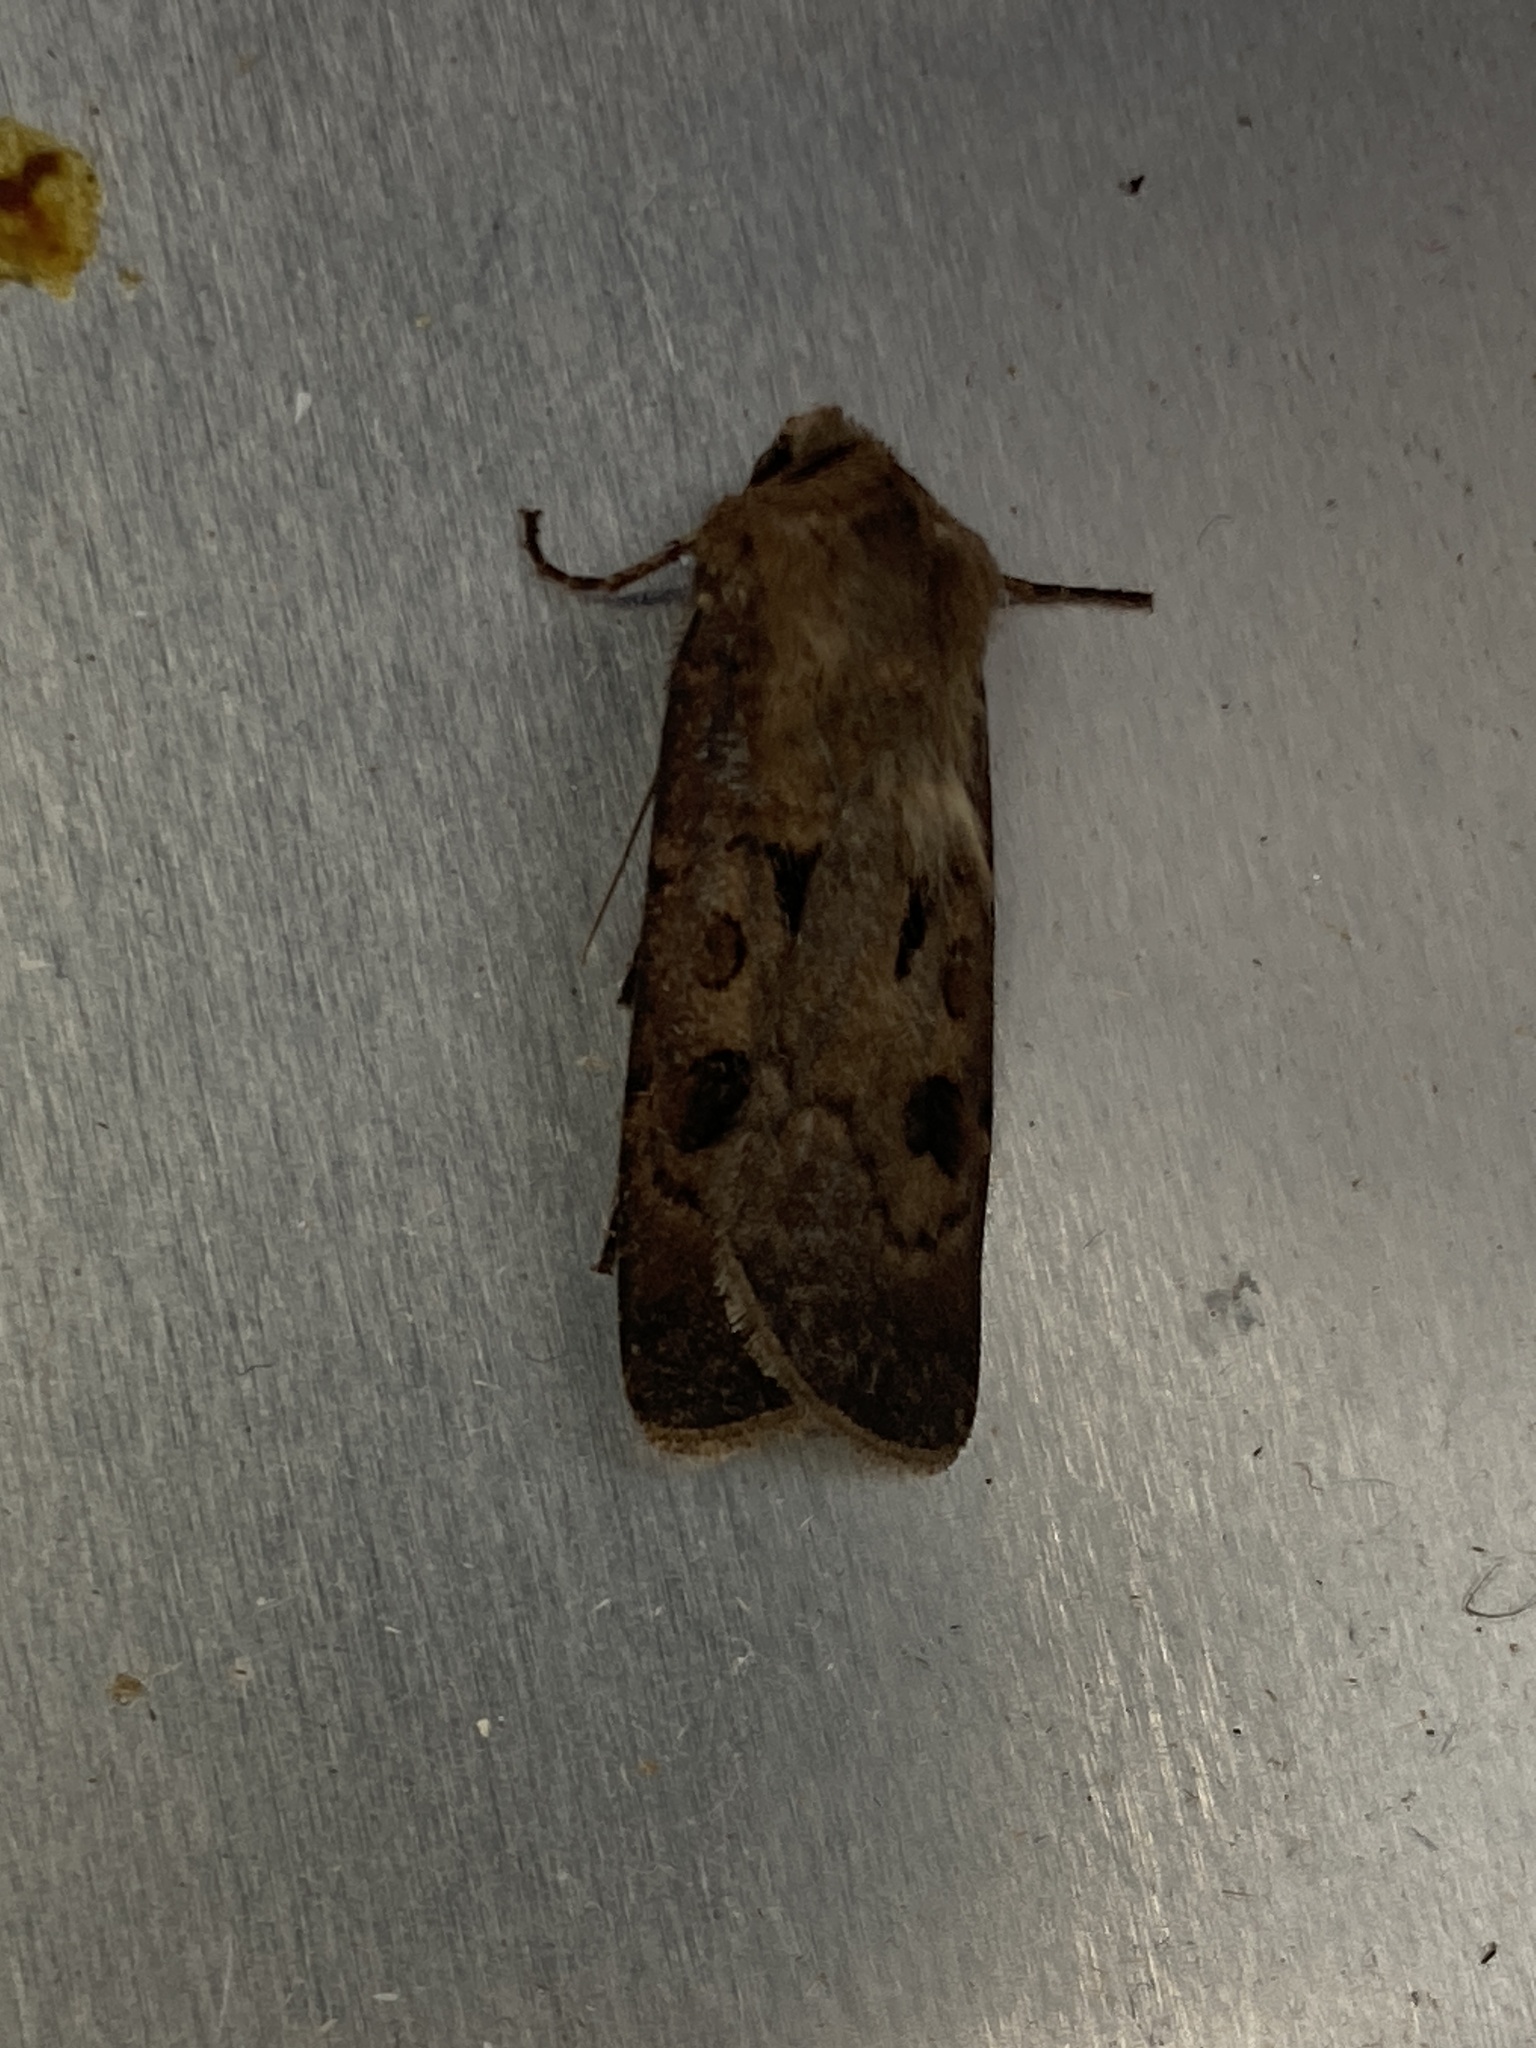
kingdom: Animalia
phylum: Arthropoda
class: Insecta
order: Lepidoptera
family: Noctuidae
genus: Agrotis
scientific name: Agrotis exclamationis
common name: Heart and dart
